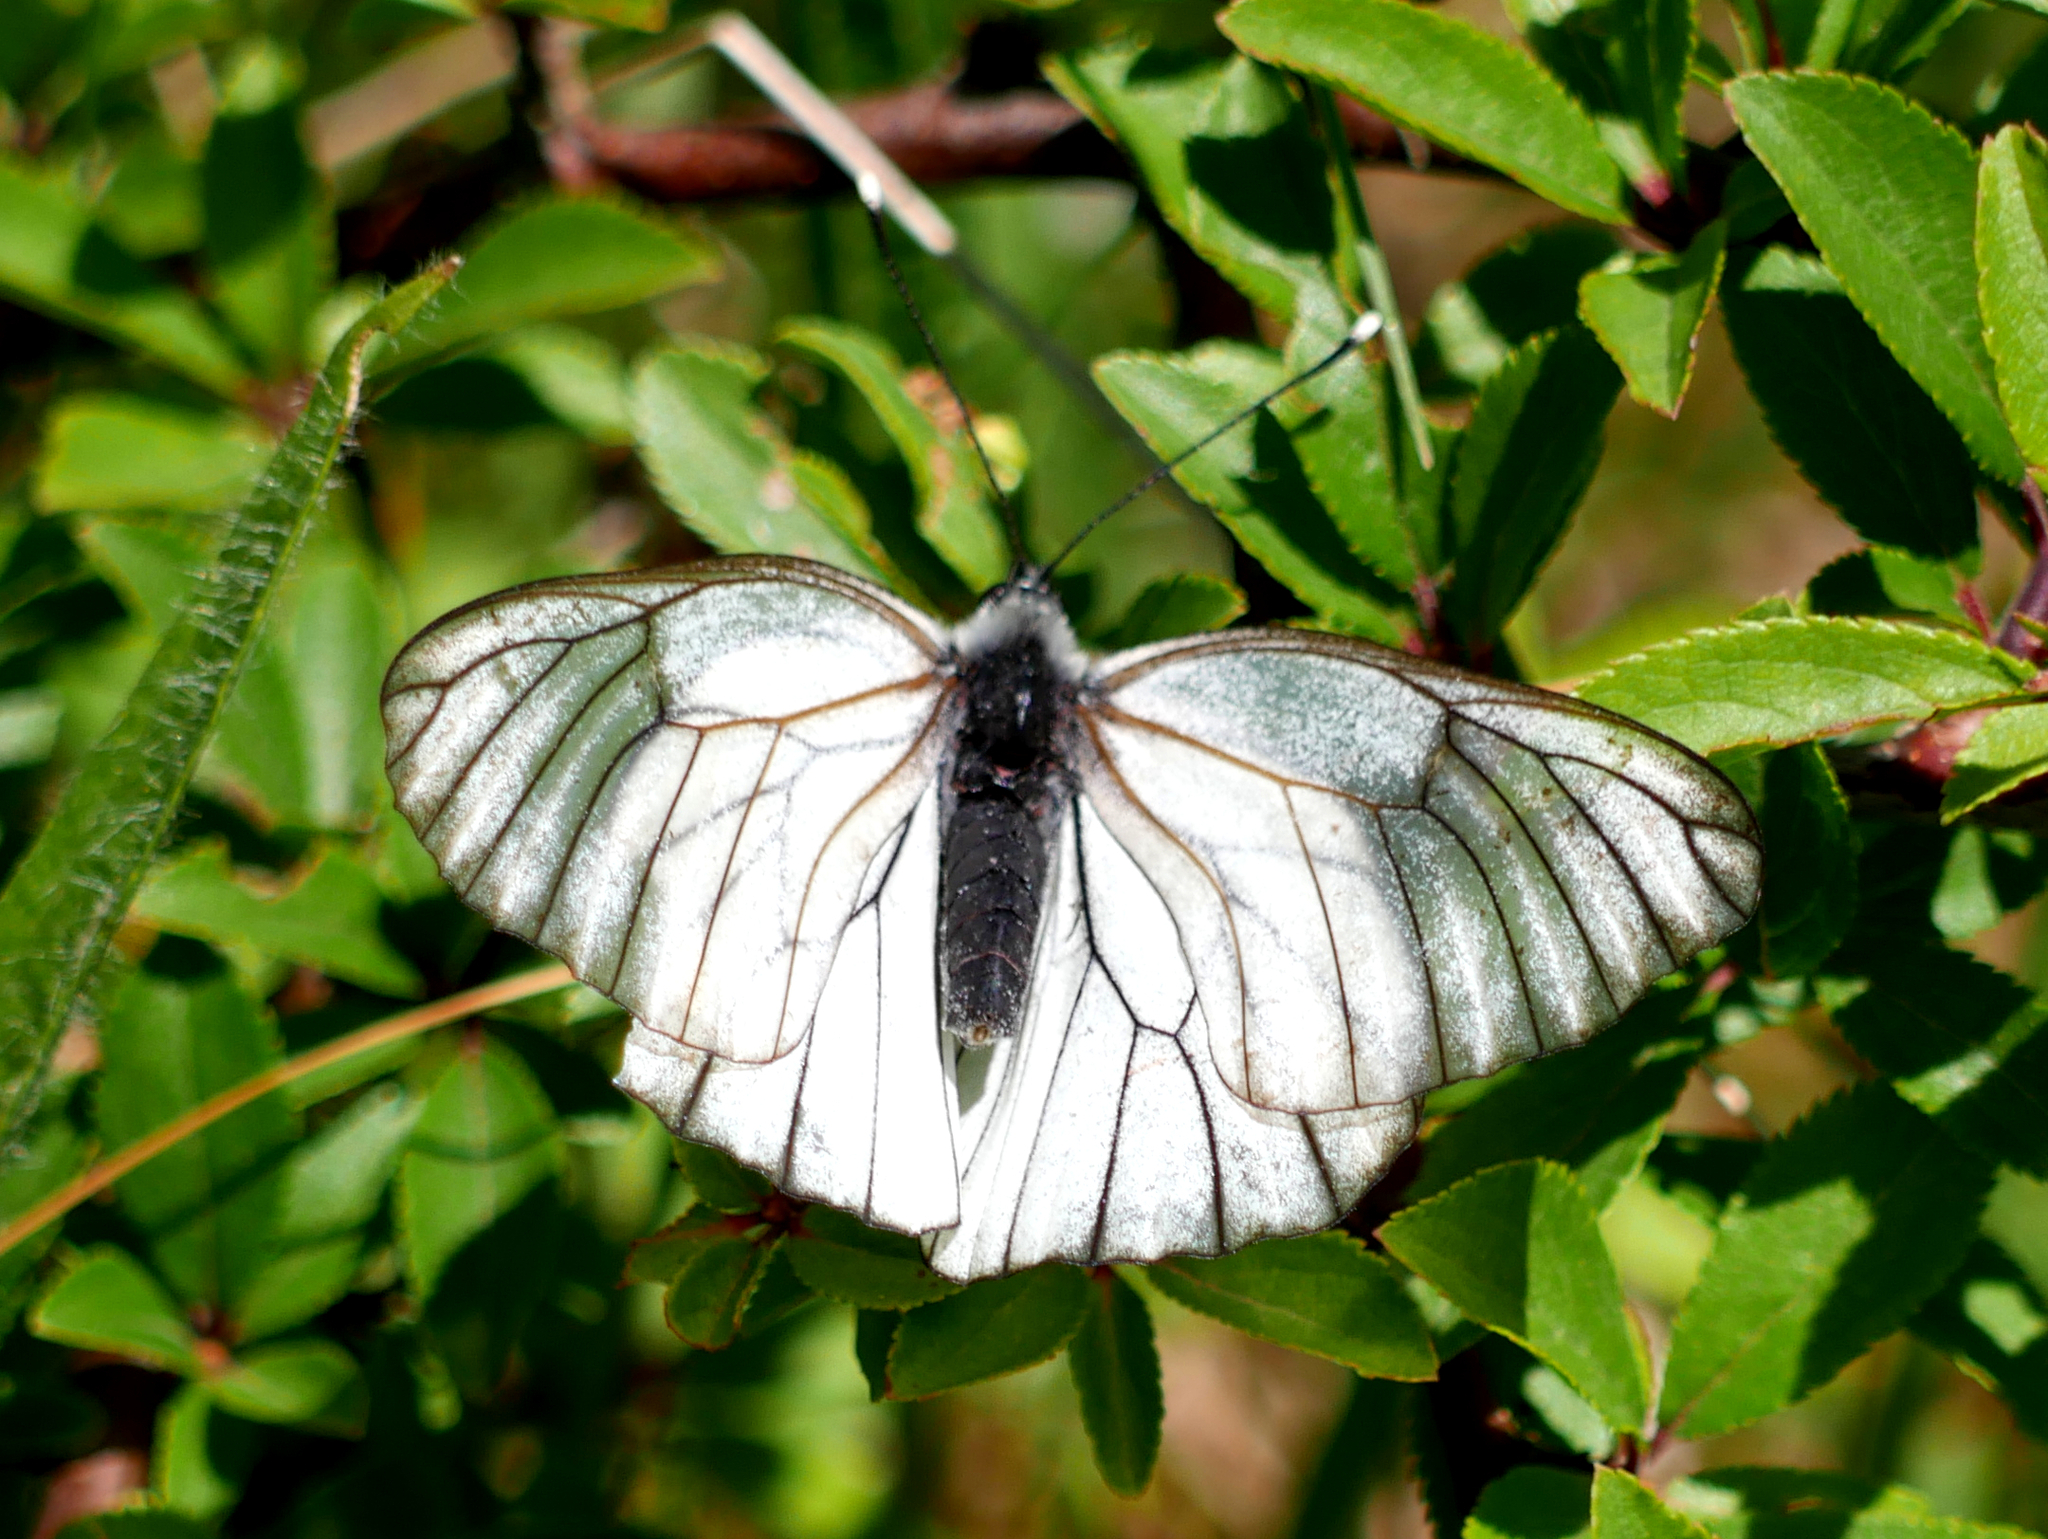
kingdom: Animalia
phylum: Arthropoda
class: Insecta
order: Lepidoptera
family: Pieridae
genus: Aporia
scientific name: Aporia crataegi
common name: Black-veined white
